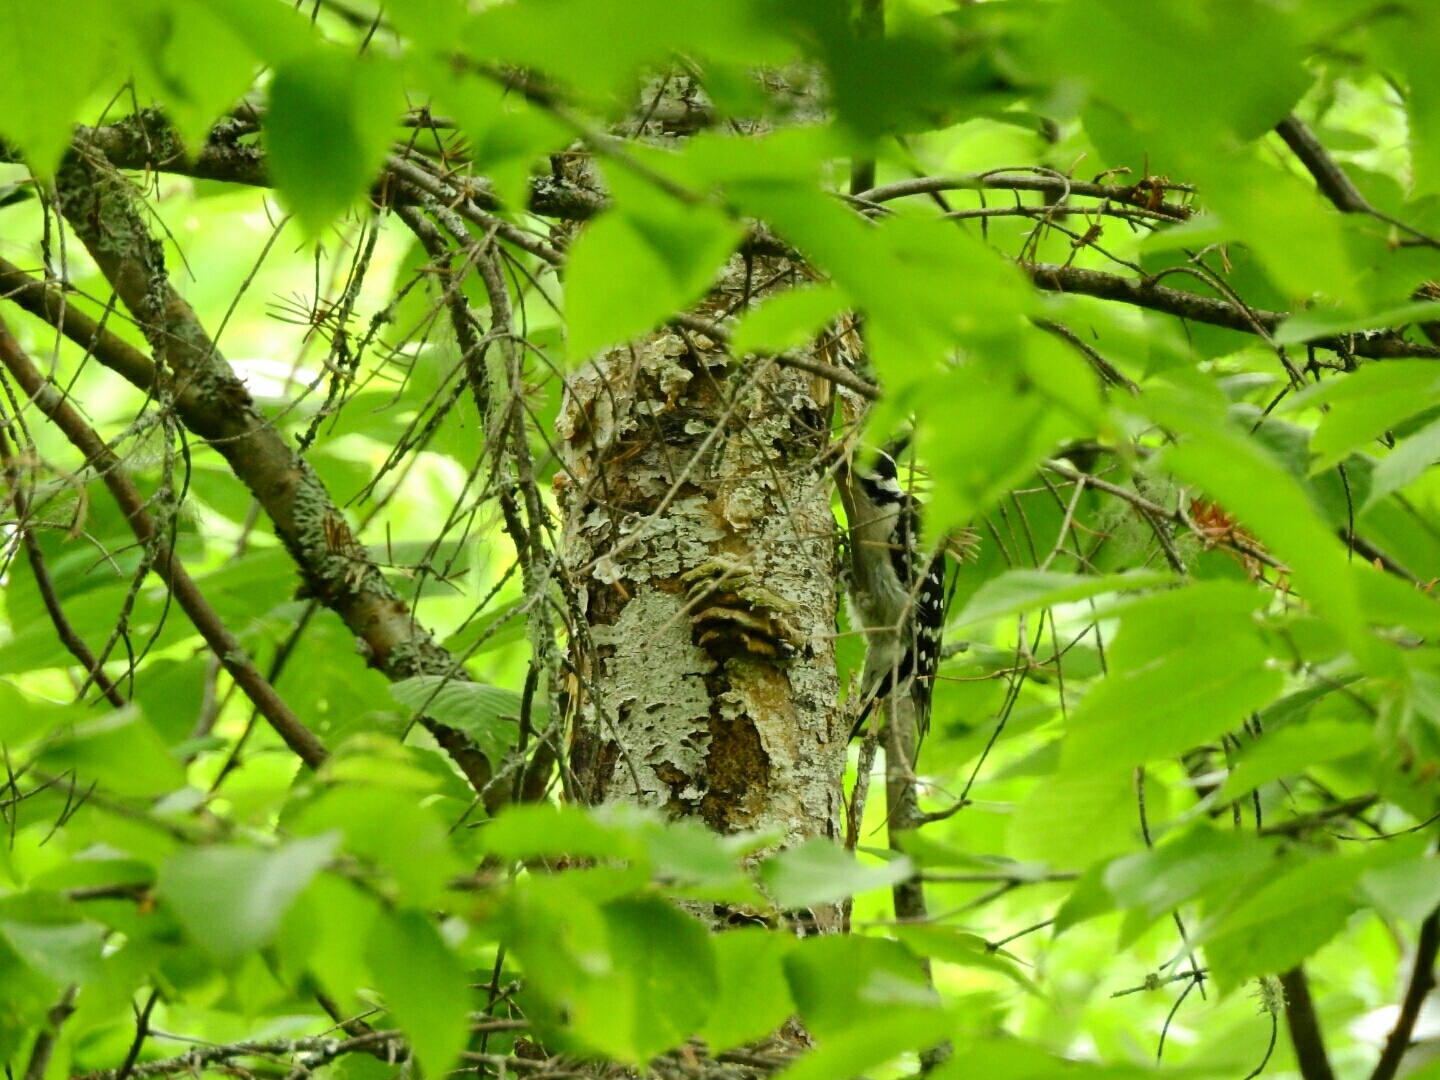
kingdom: Animalia
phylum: Chordata
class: Aves
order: Piciformes
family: Picidae
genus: Dryobates
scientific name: Dryobates pubescens
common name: Downy woodpecker
